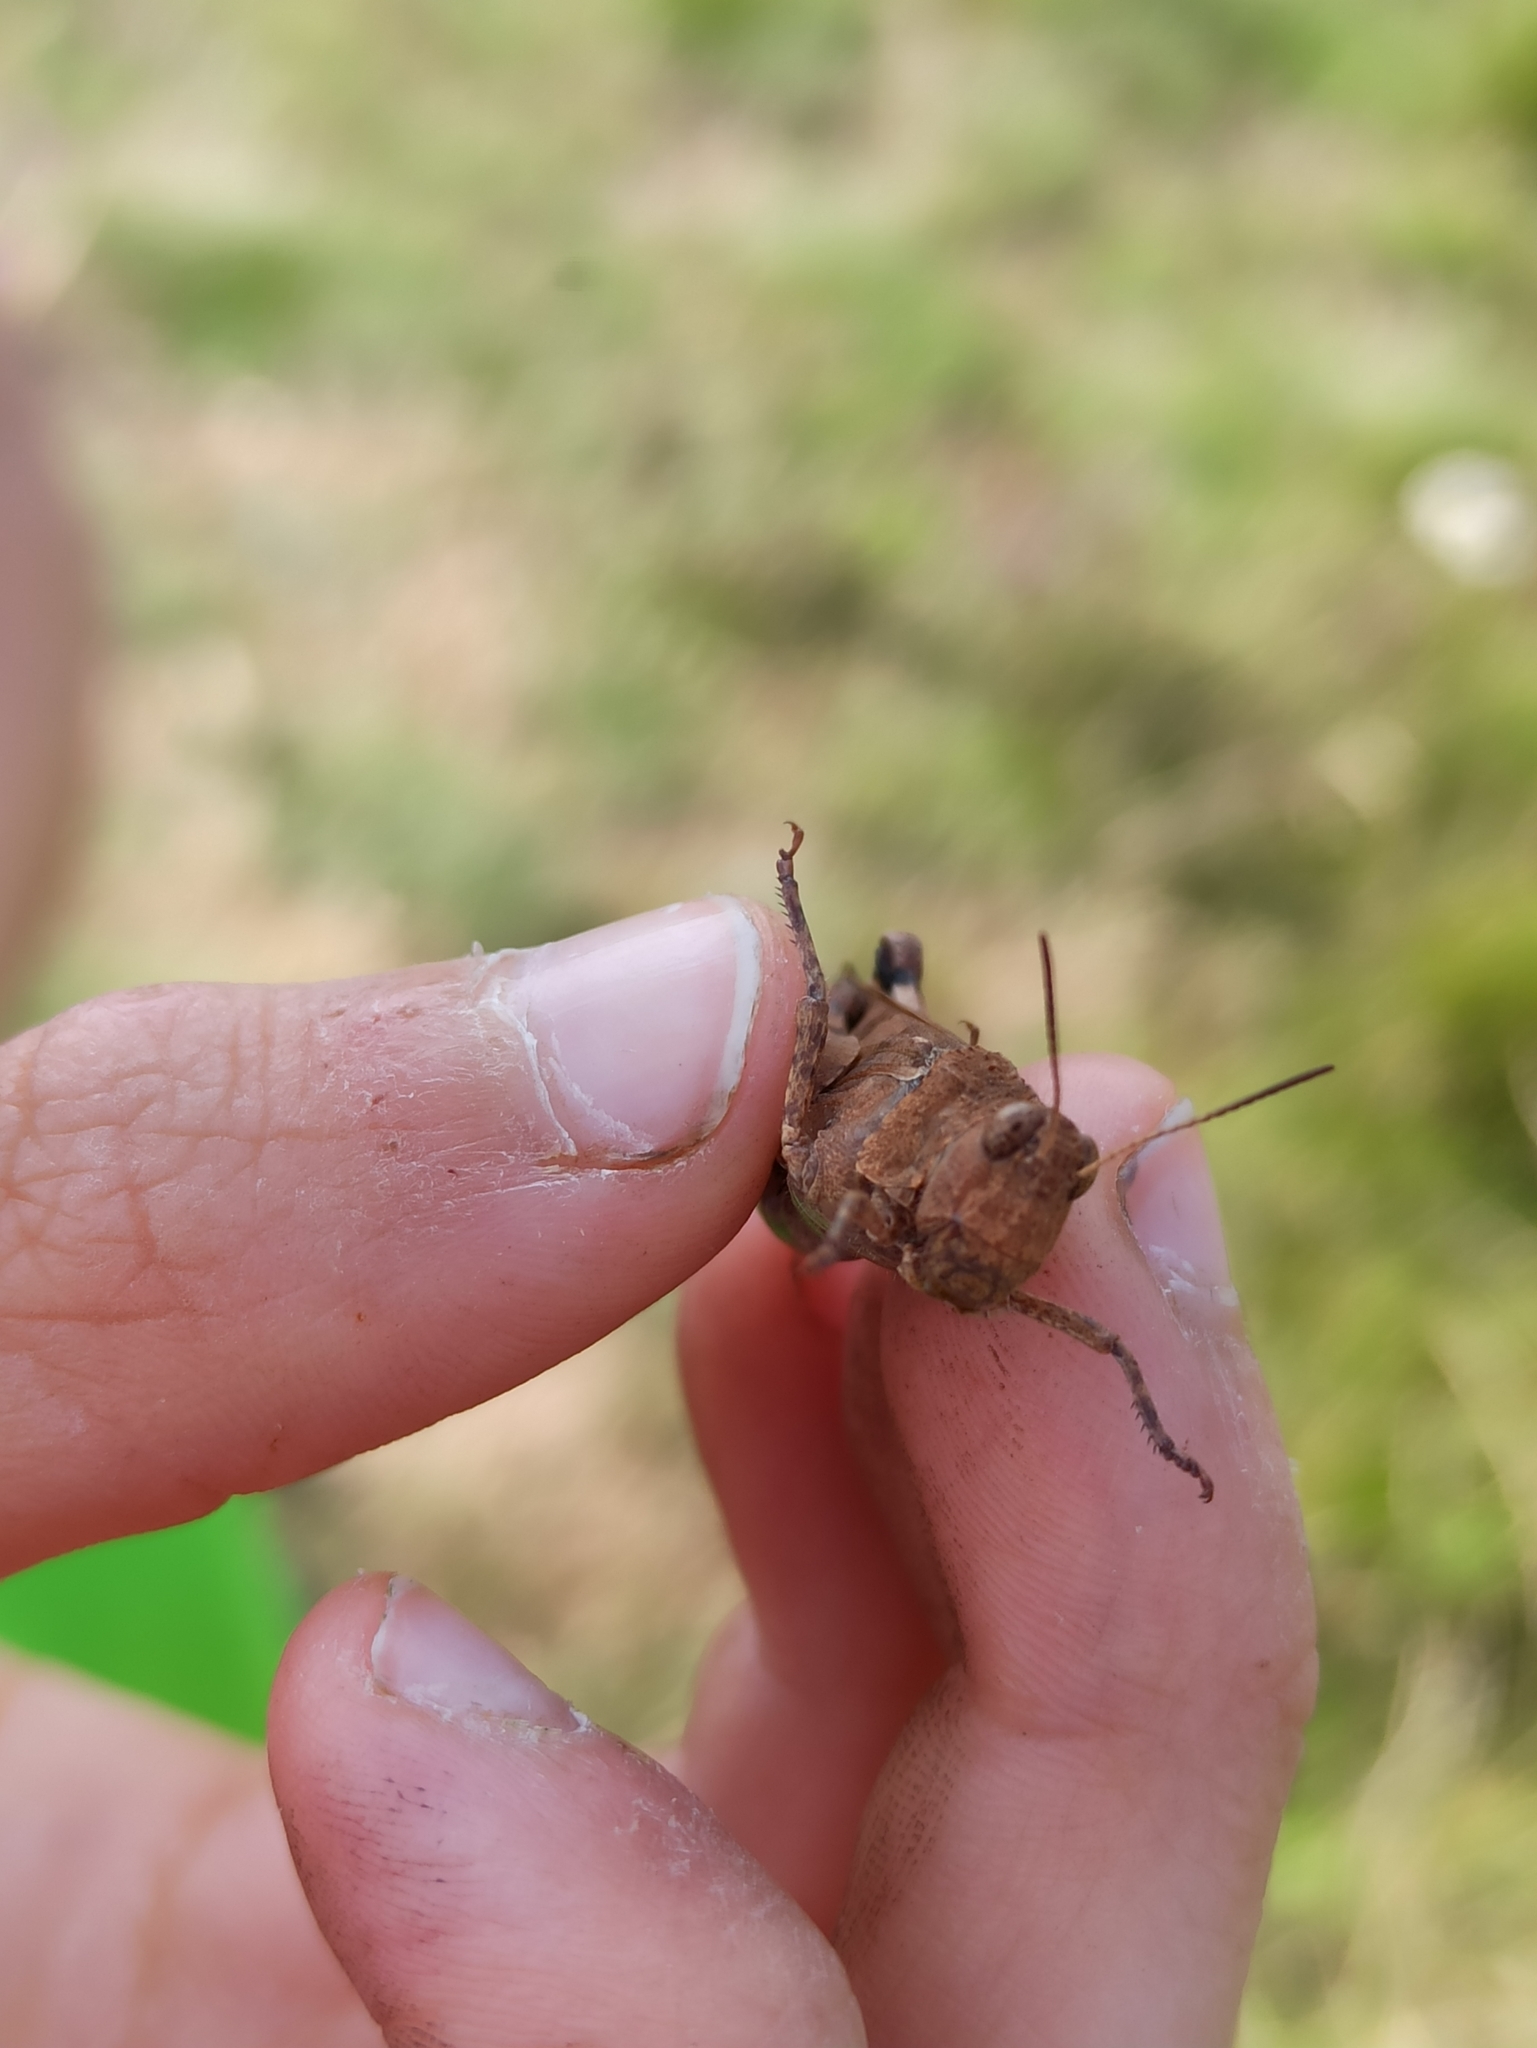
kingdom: Animalia
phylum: Arthropoda
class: Insecta
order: Orthoptera
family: Acrididae
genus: Oedipoda
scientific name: Oedipoda caerulescens
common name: Blue-winged grasshopper
